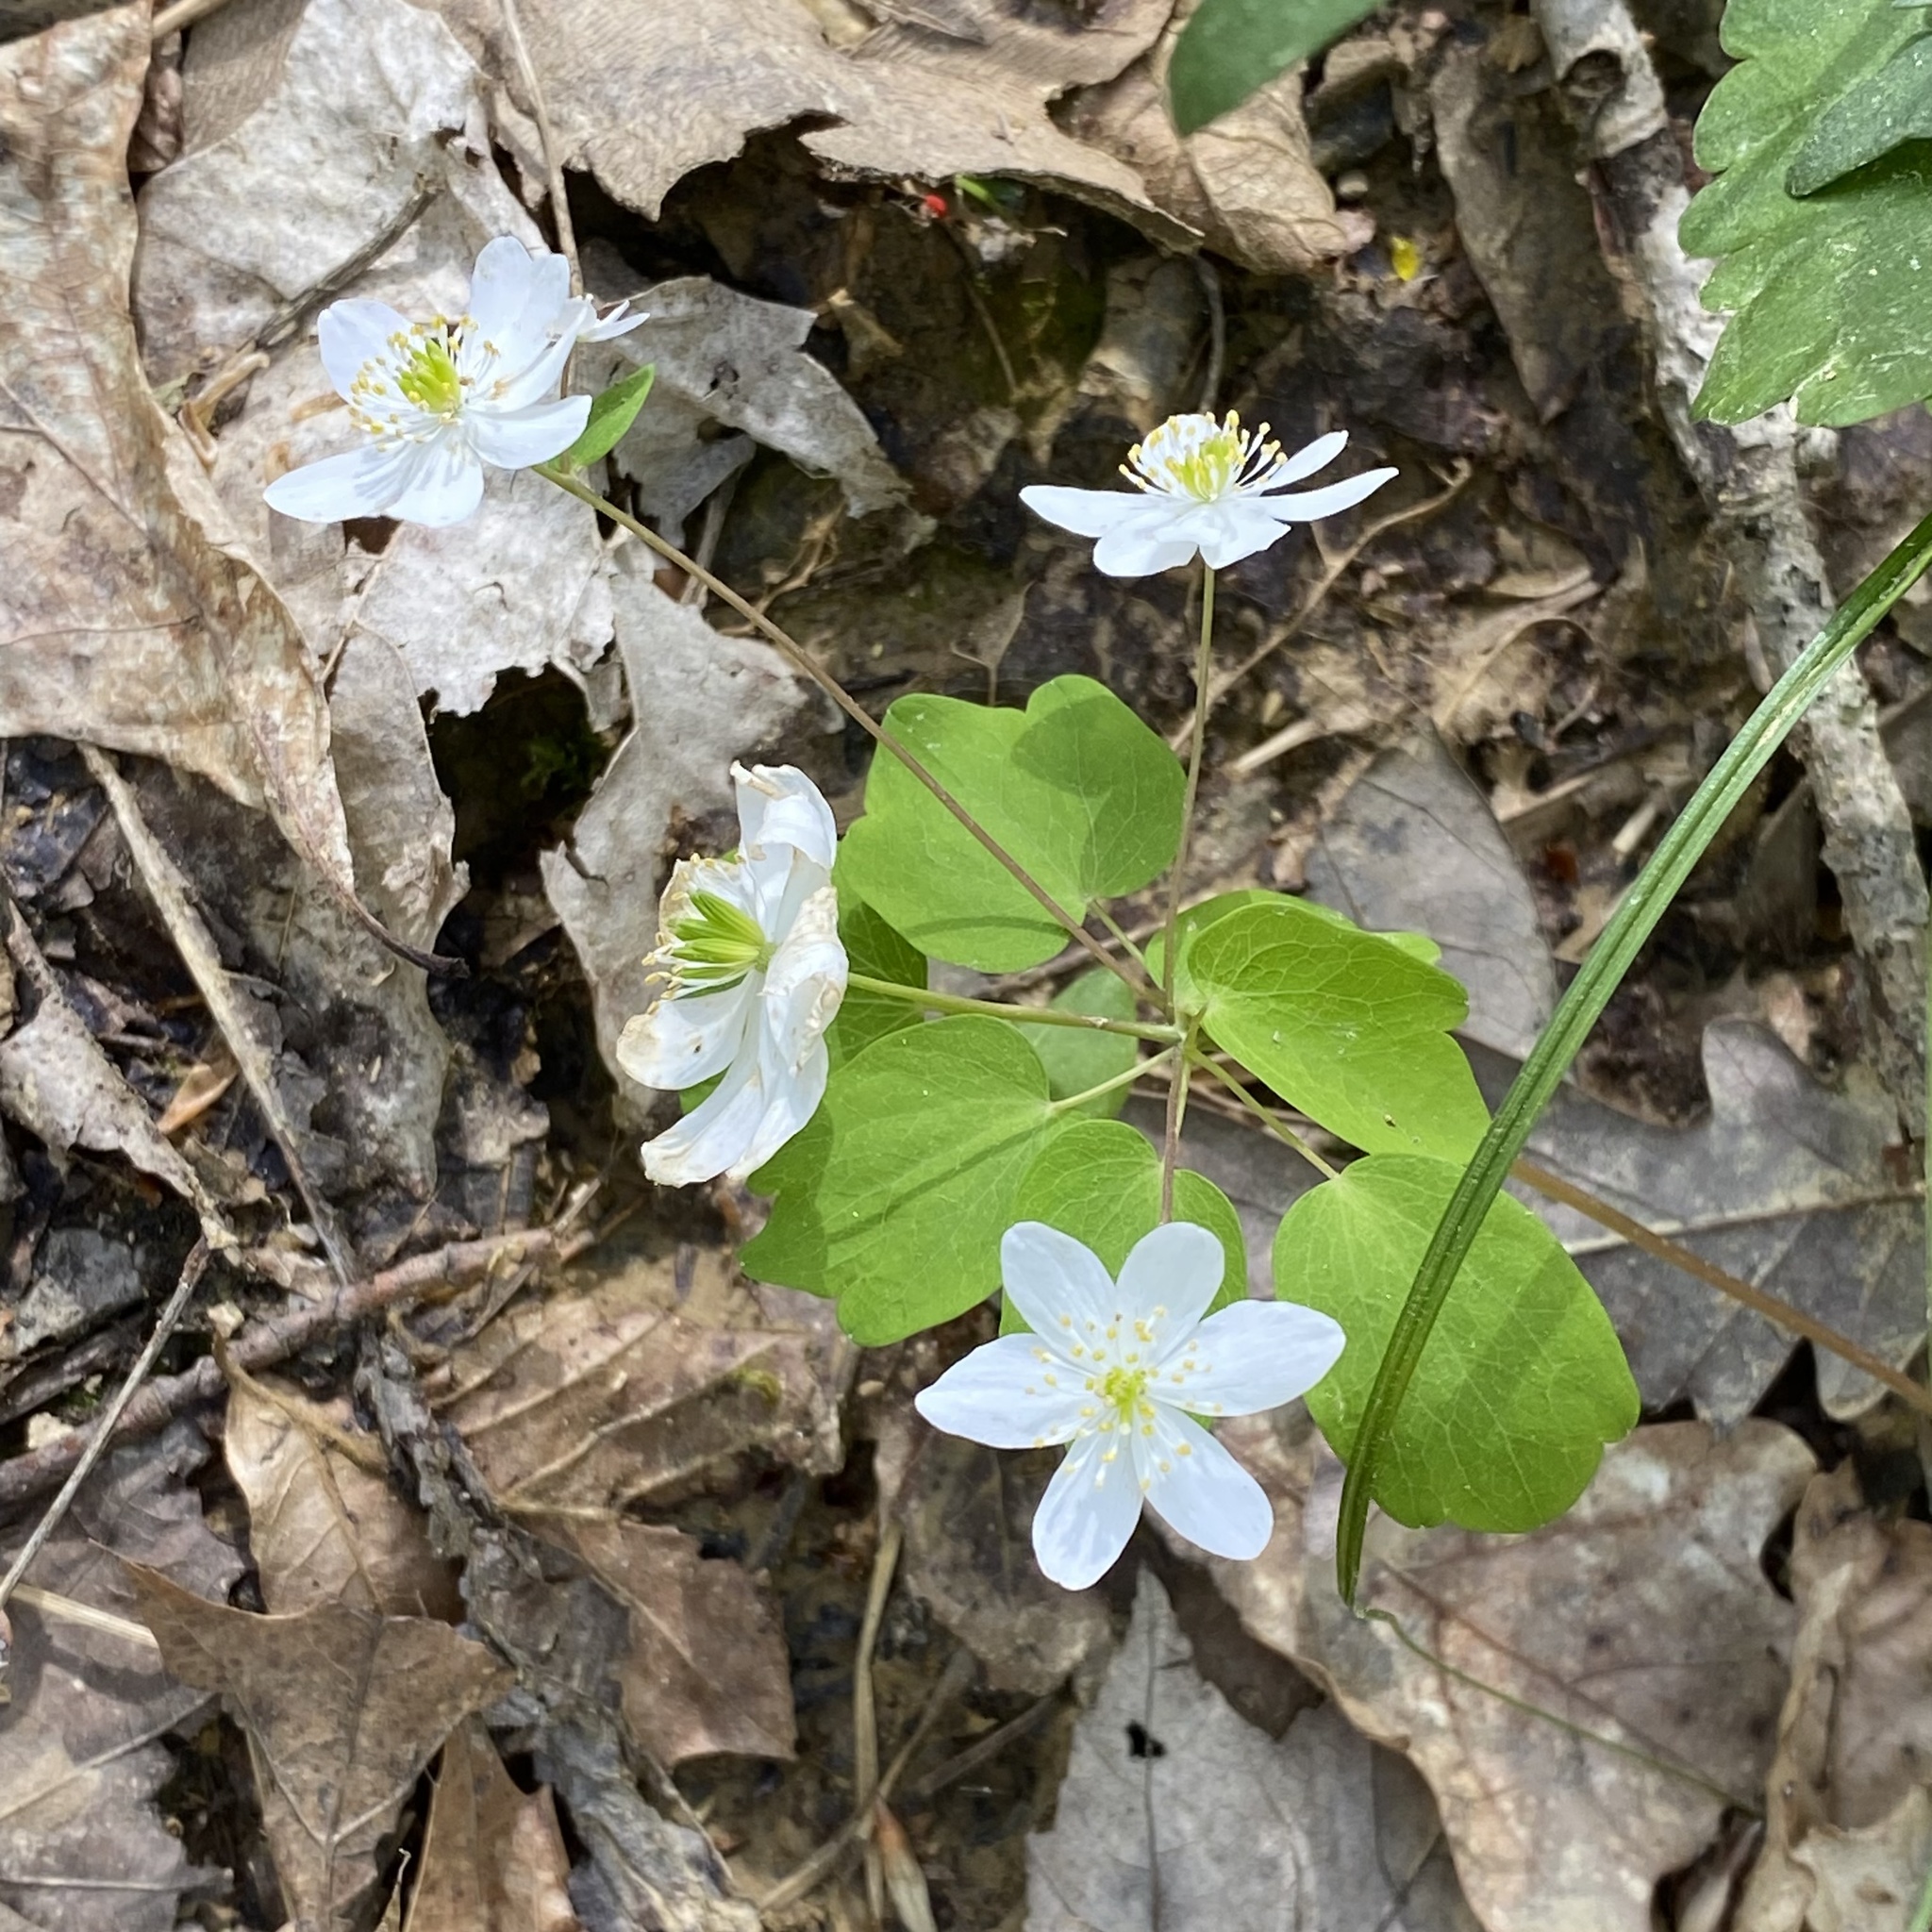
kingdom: Plantae
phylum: Tracheophyta
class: Magnoliopsida
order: Ranunculales
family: Ranunculaceae
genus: Thalictrum
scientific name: Thalictrum thalictroides
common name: Rue-anemone
